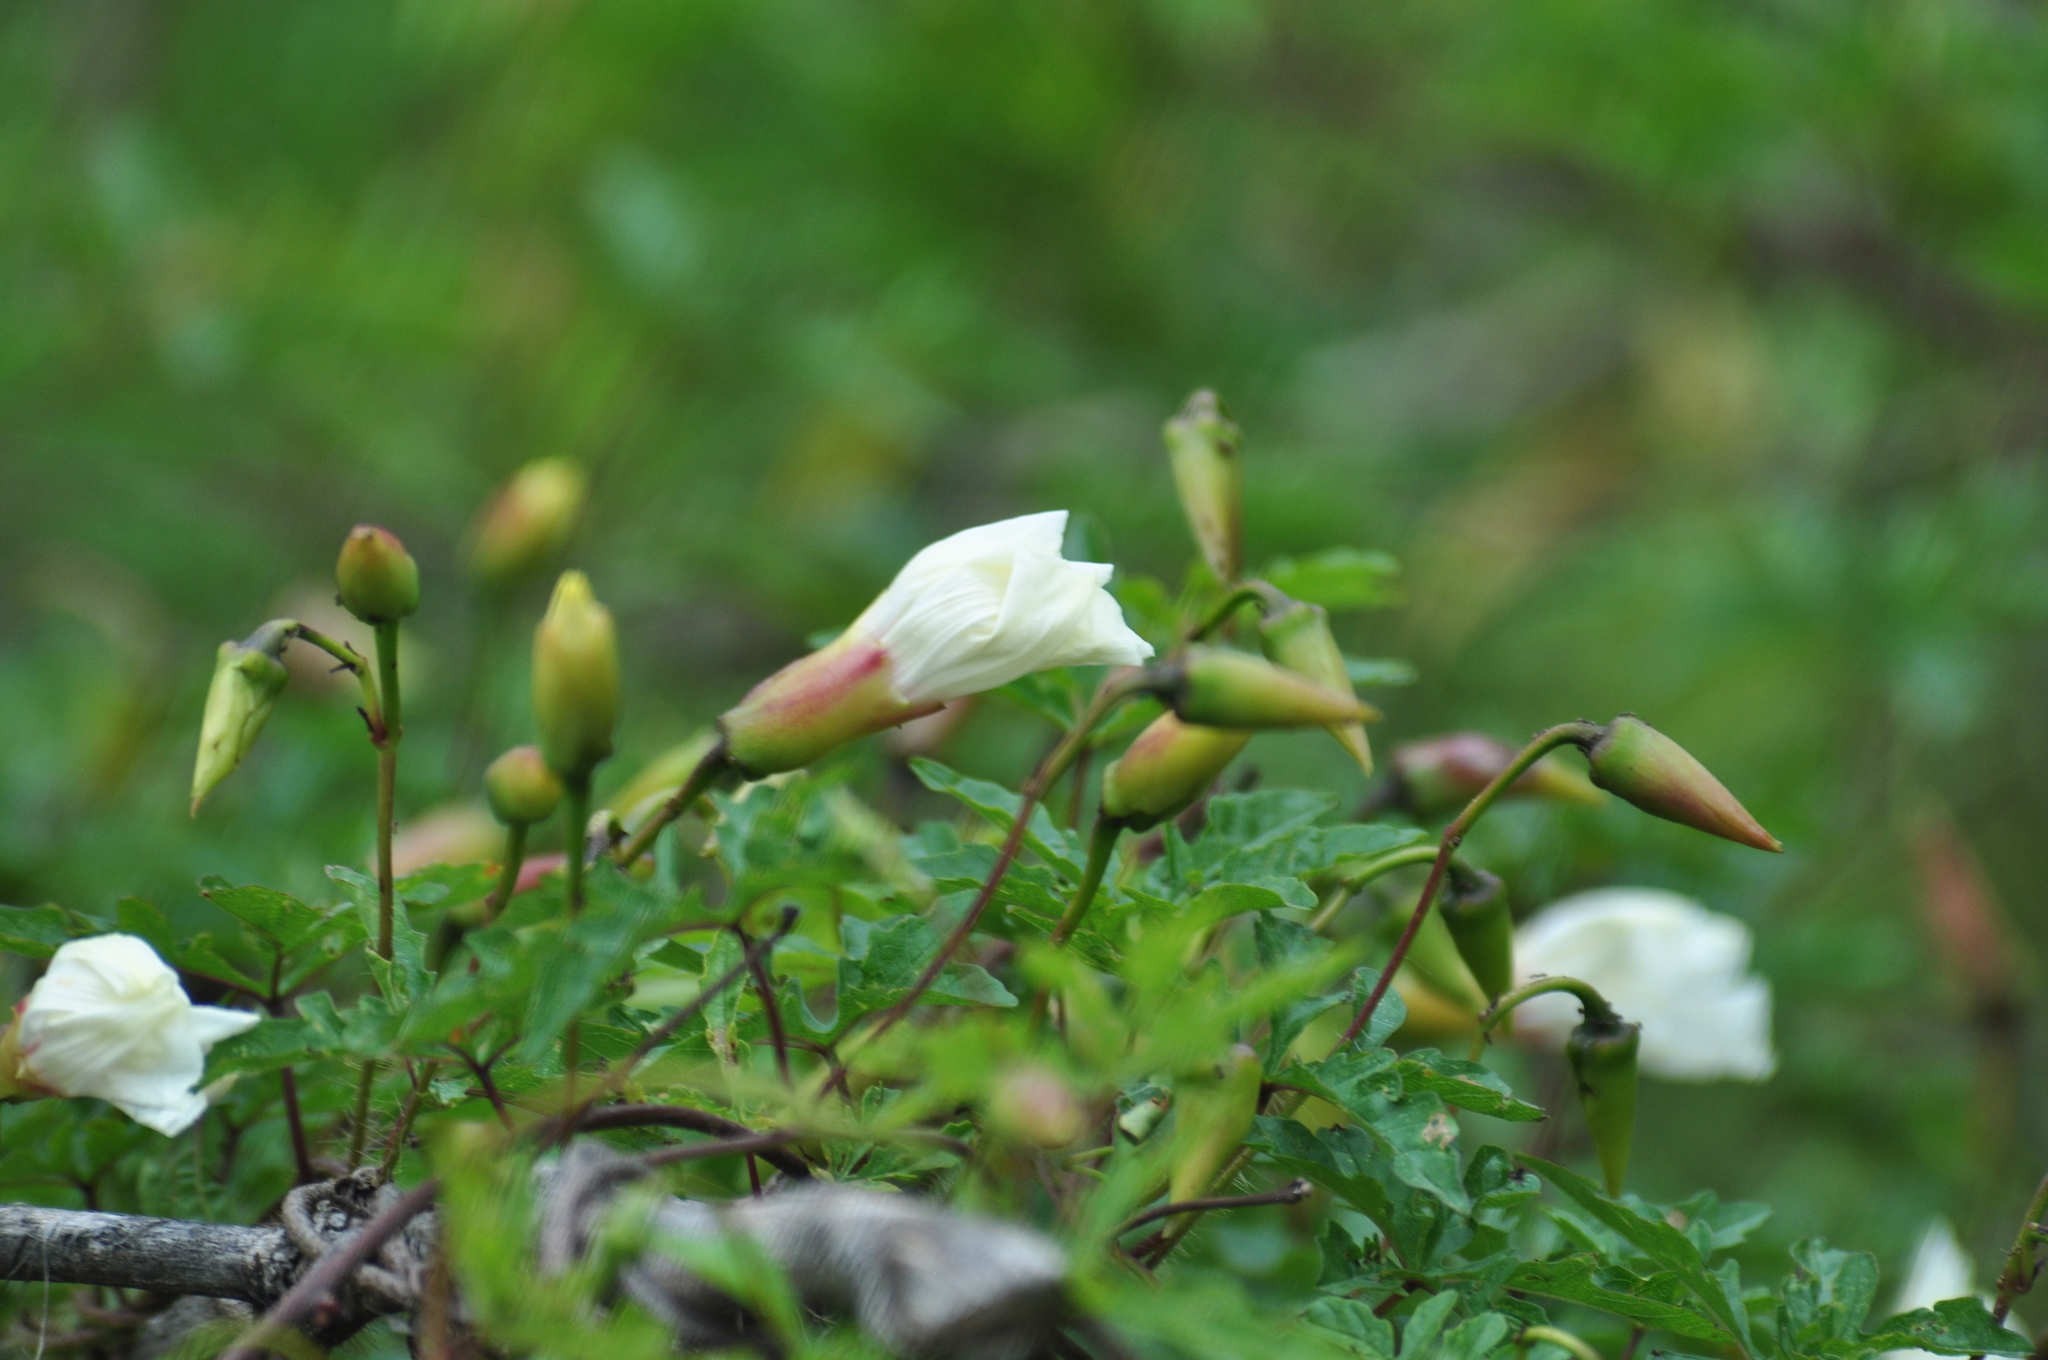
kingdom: Plantae
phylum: Tracheophyta
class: Magnoliopsida
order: Solanales
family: Convolvulaceae
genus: Distimake
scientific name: Distimake dissectus
